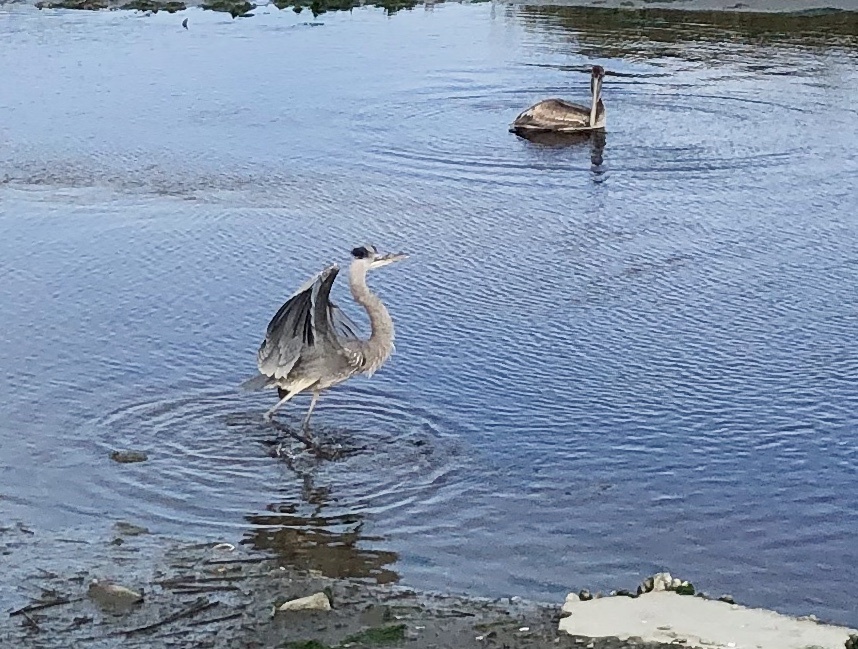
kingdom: Animalia
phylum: Chordata
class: Aves
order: Pelecaniformes
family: Ardeidae
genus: Ardea
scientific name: Ardea herodias
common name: Great blue heron
